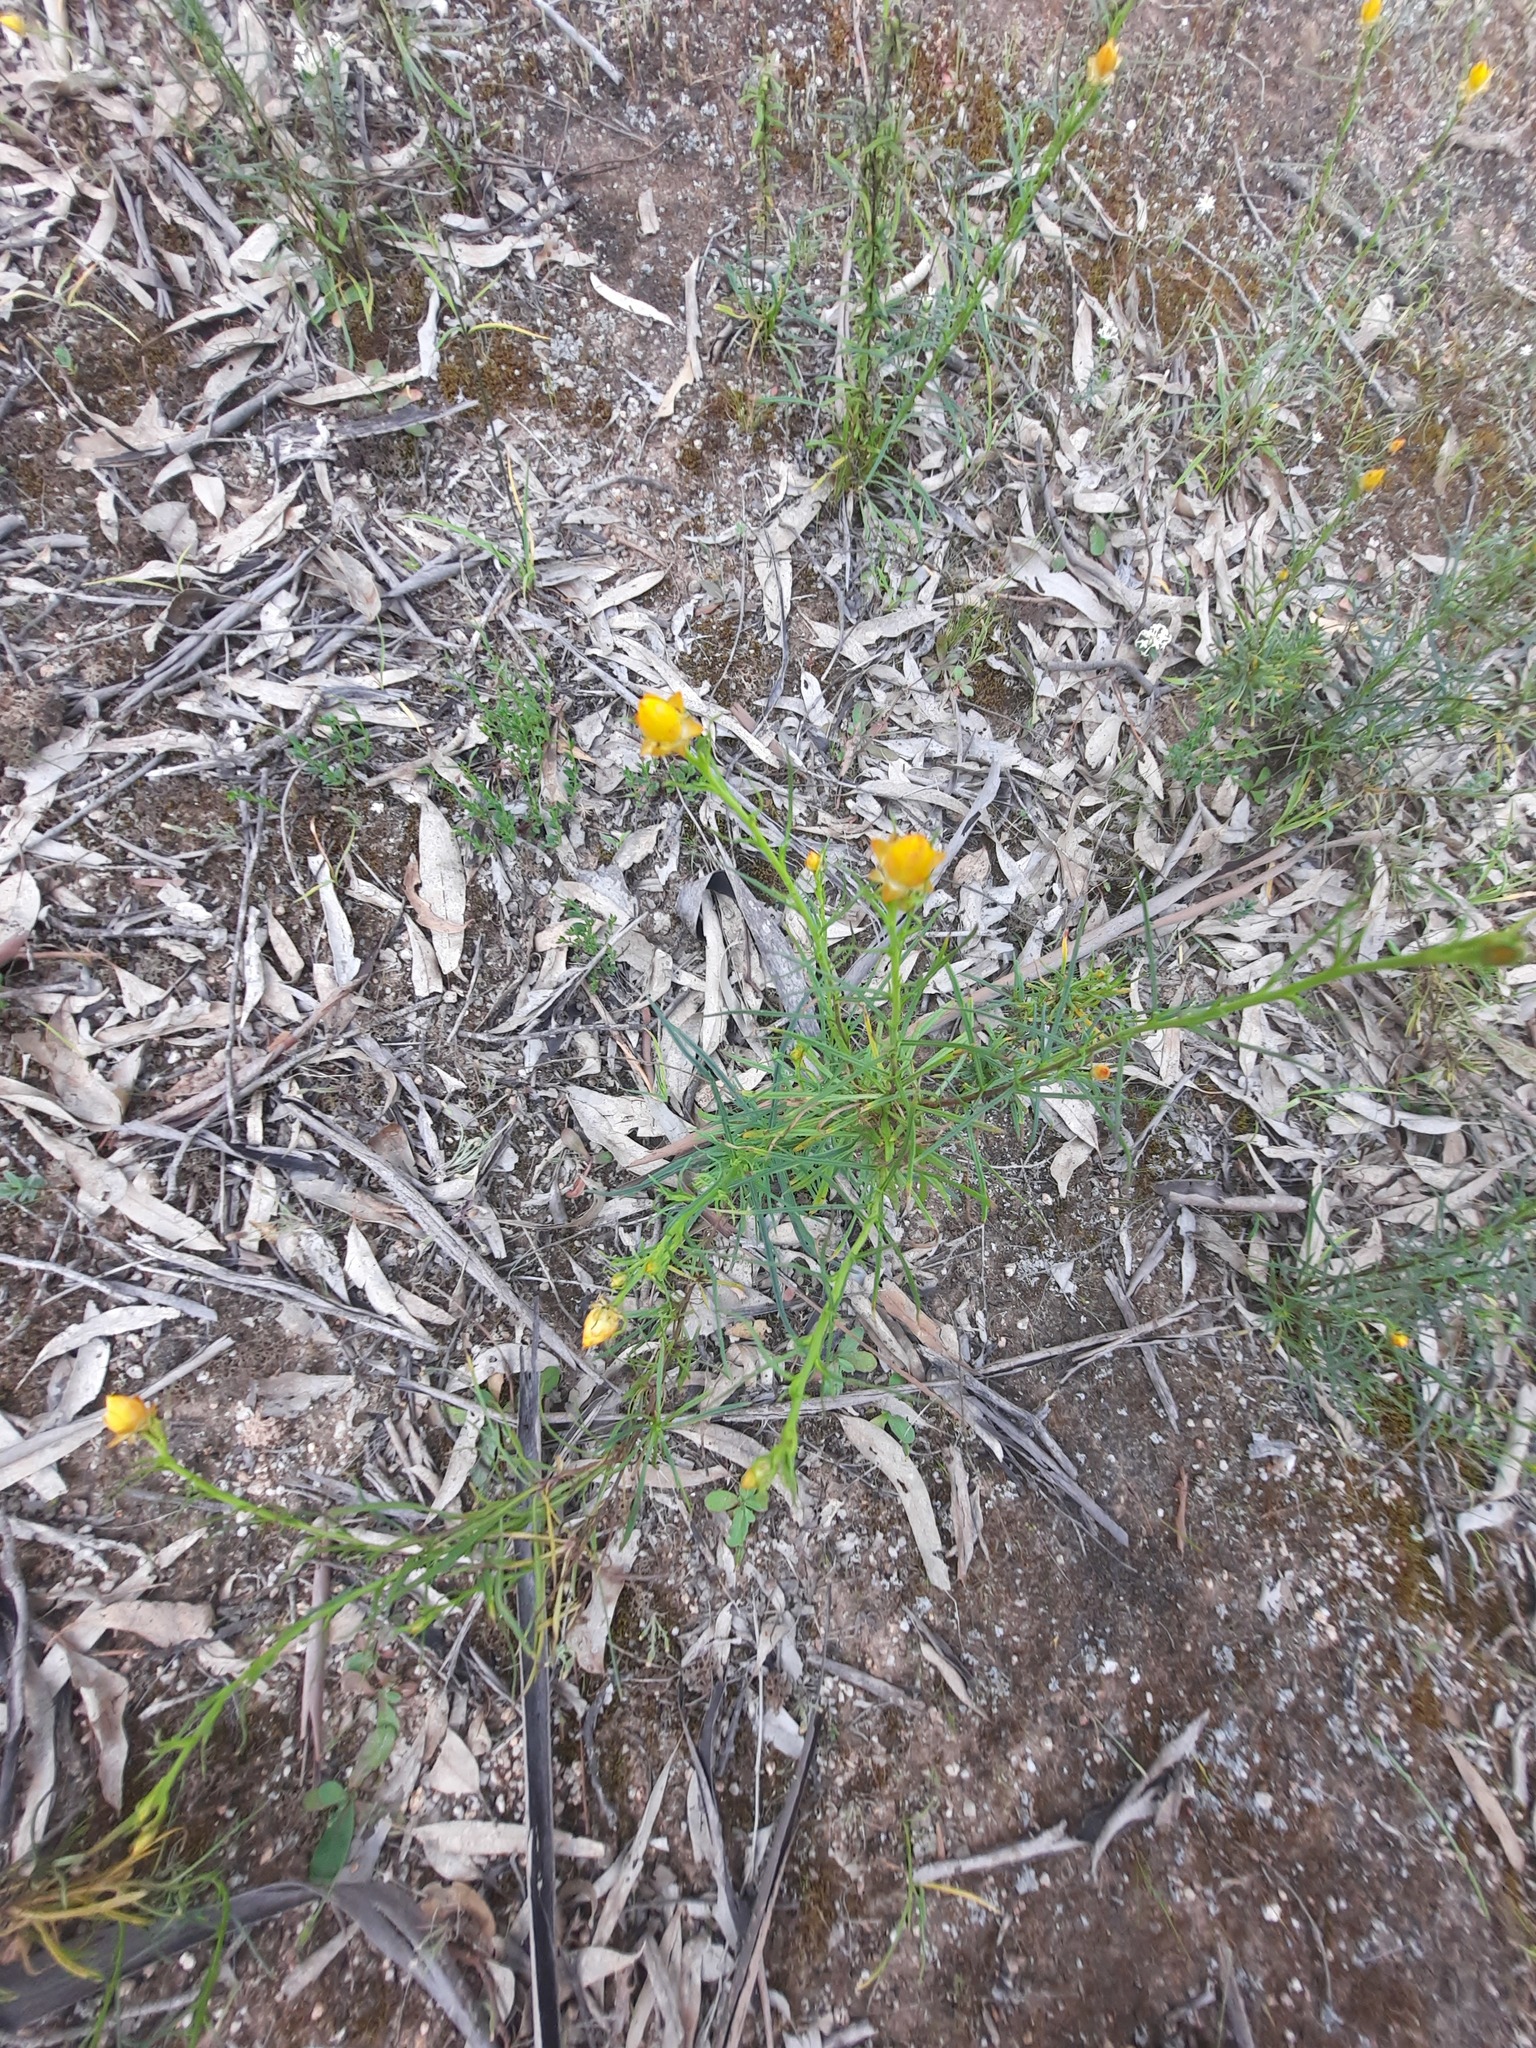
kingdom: Plantae
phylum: Tracheophyta
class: Magnoliopsida
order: Asterales
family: Asteraceae
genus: Xerochrysum
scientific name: Xerochrysum viscosum
